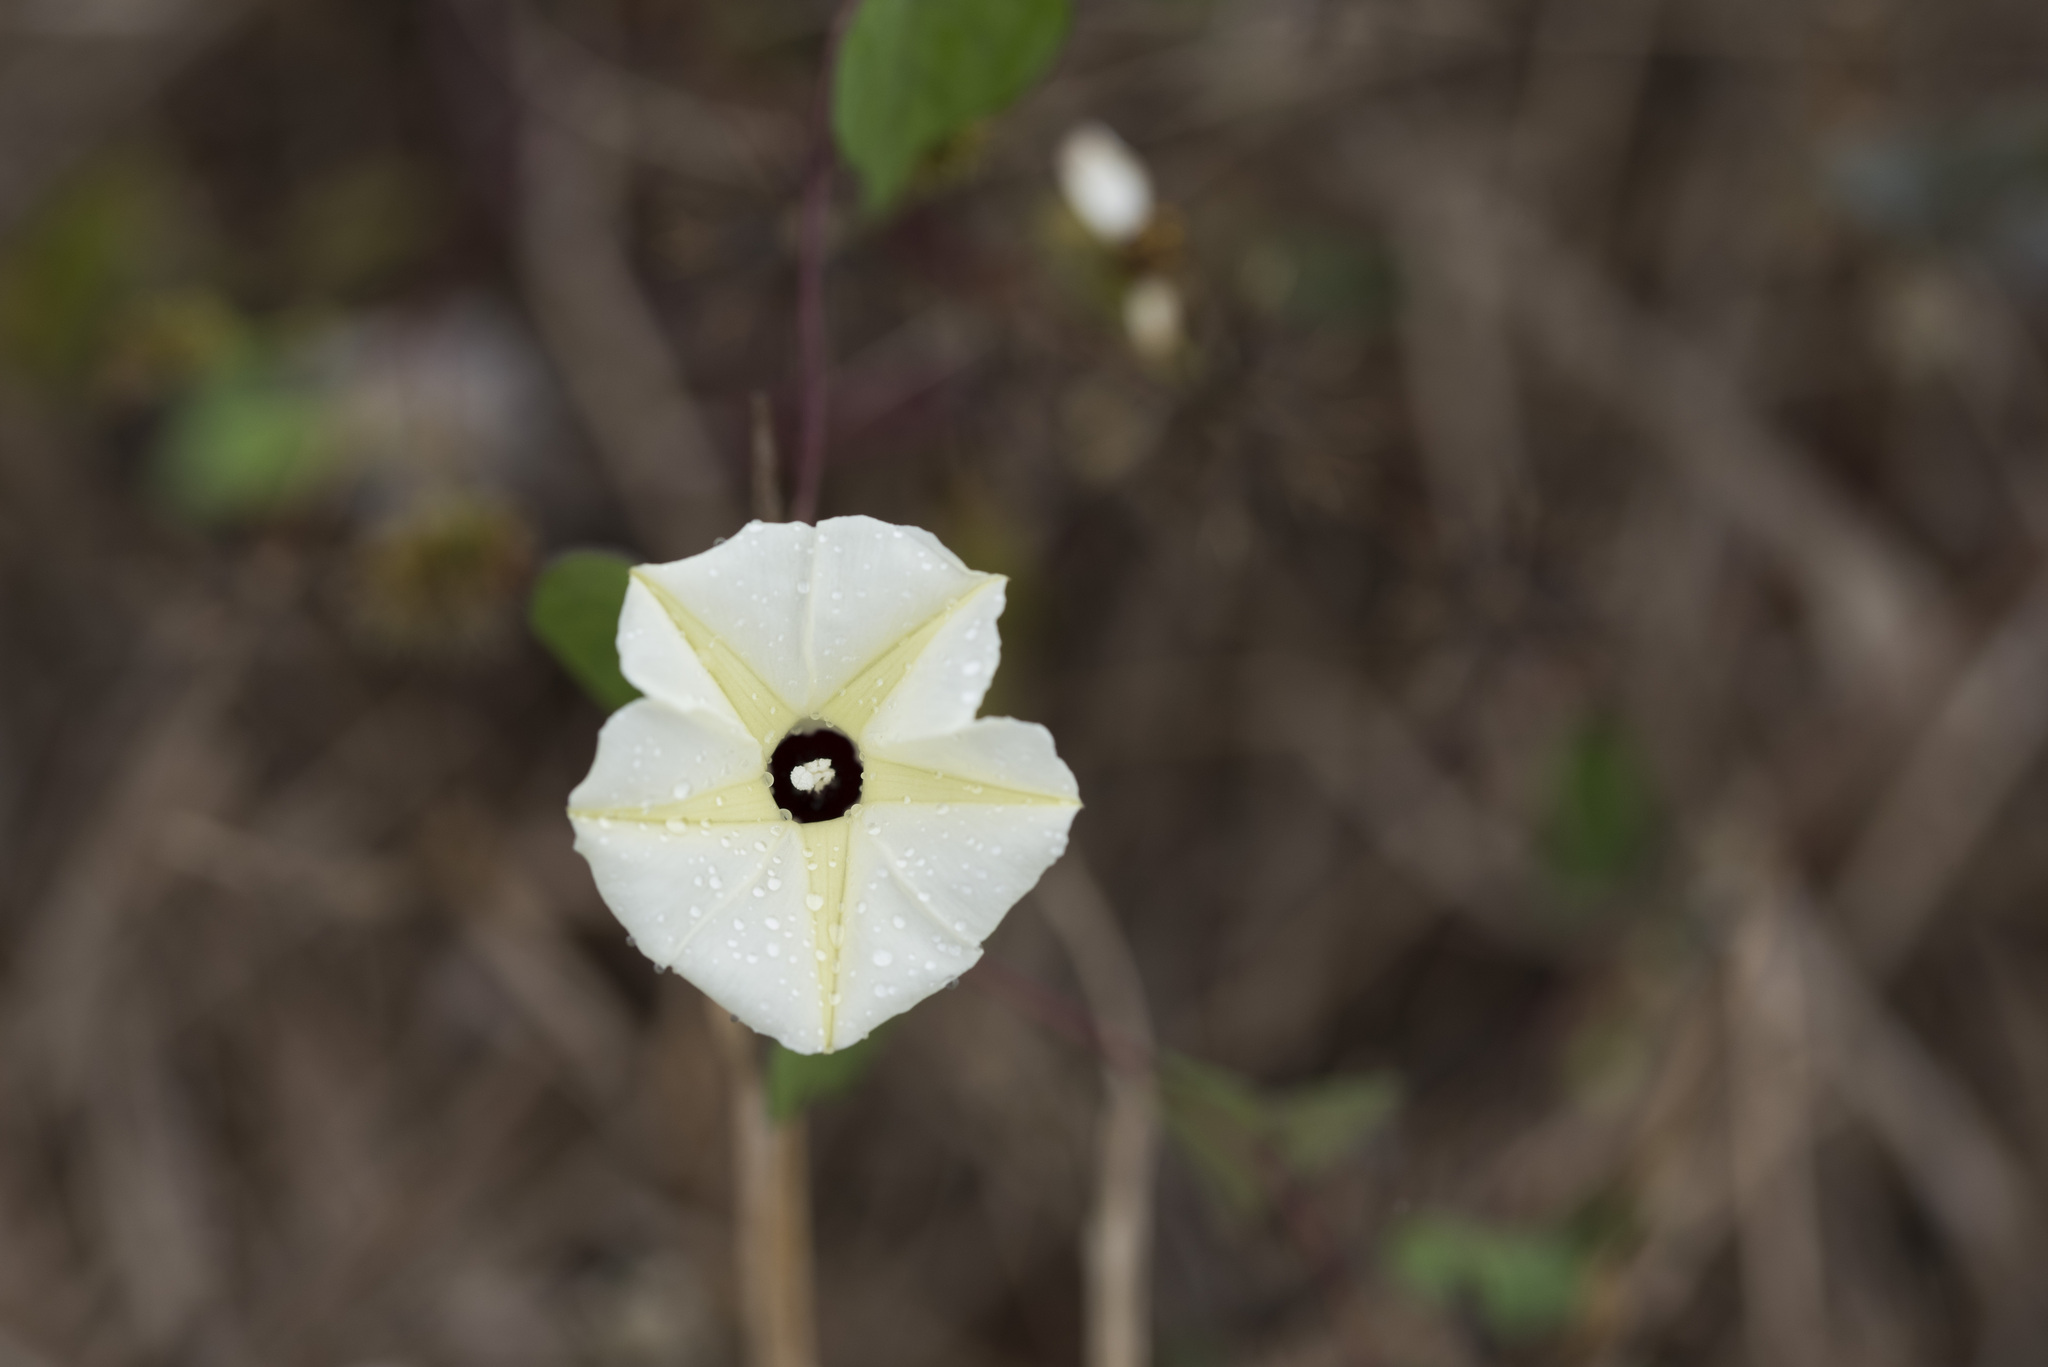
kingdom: Plantae
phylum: Tracheophyta
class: Magnoliopsida
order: Solanales
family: Convolvulaceae
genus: Ipomoea
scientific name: Ipomoea obscura
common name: Obscure morning-glory
